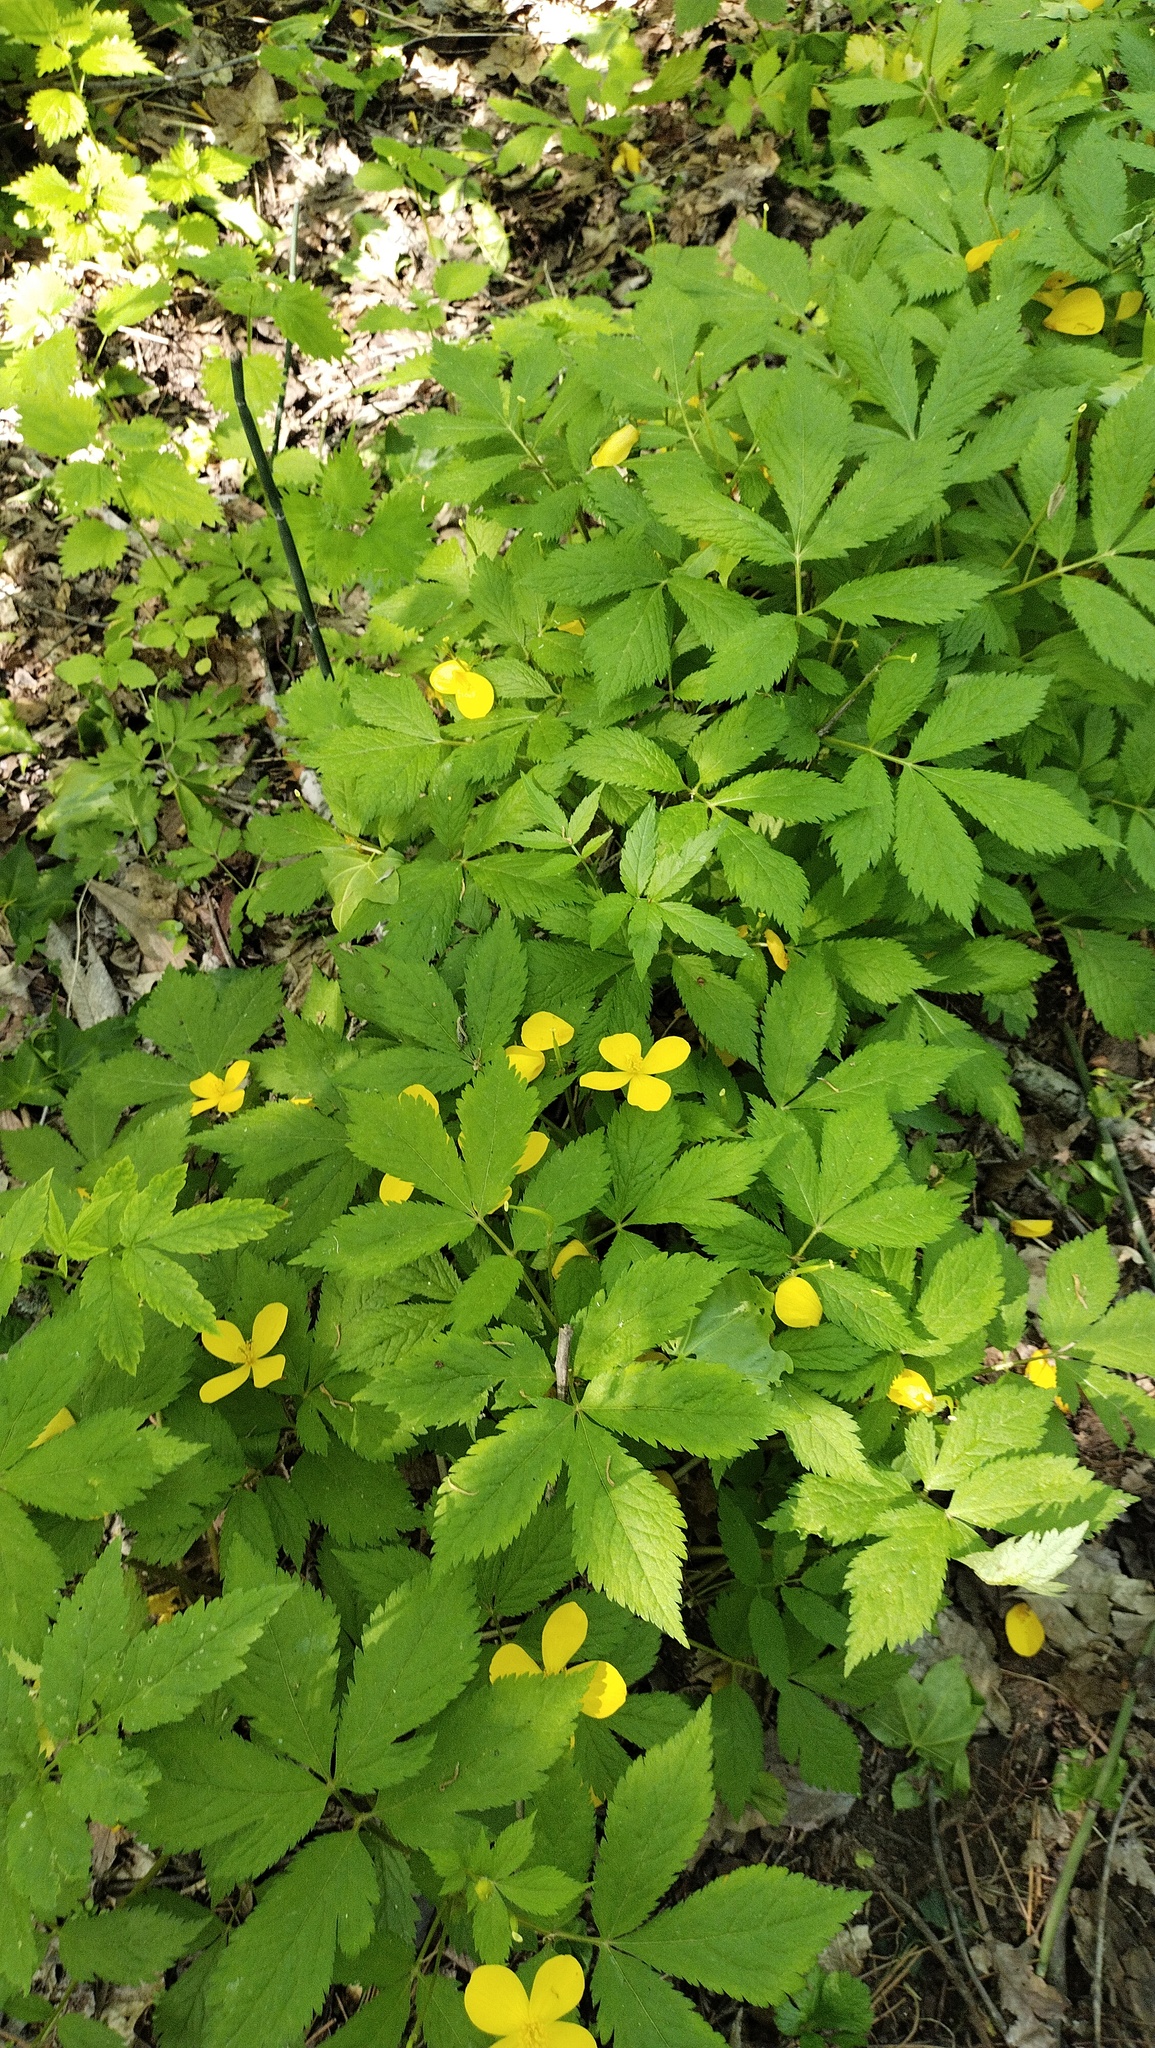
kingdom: Plantae
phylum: Tracheophyta
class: Magnoliopsida
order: Ranunculales
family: Papaveraceae
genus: Hylomecon
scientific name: Hylomecon vernalis
